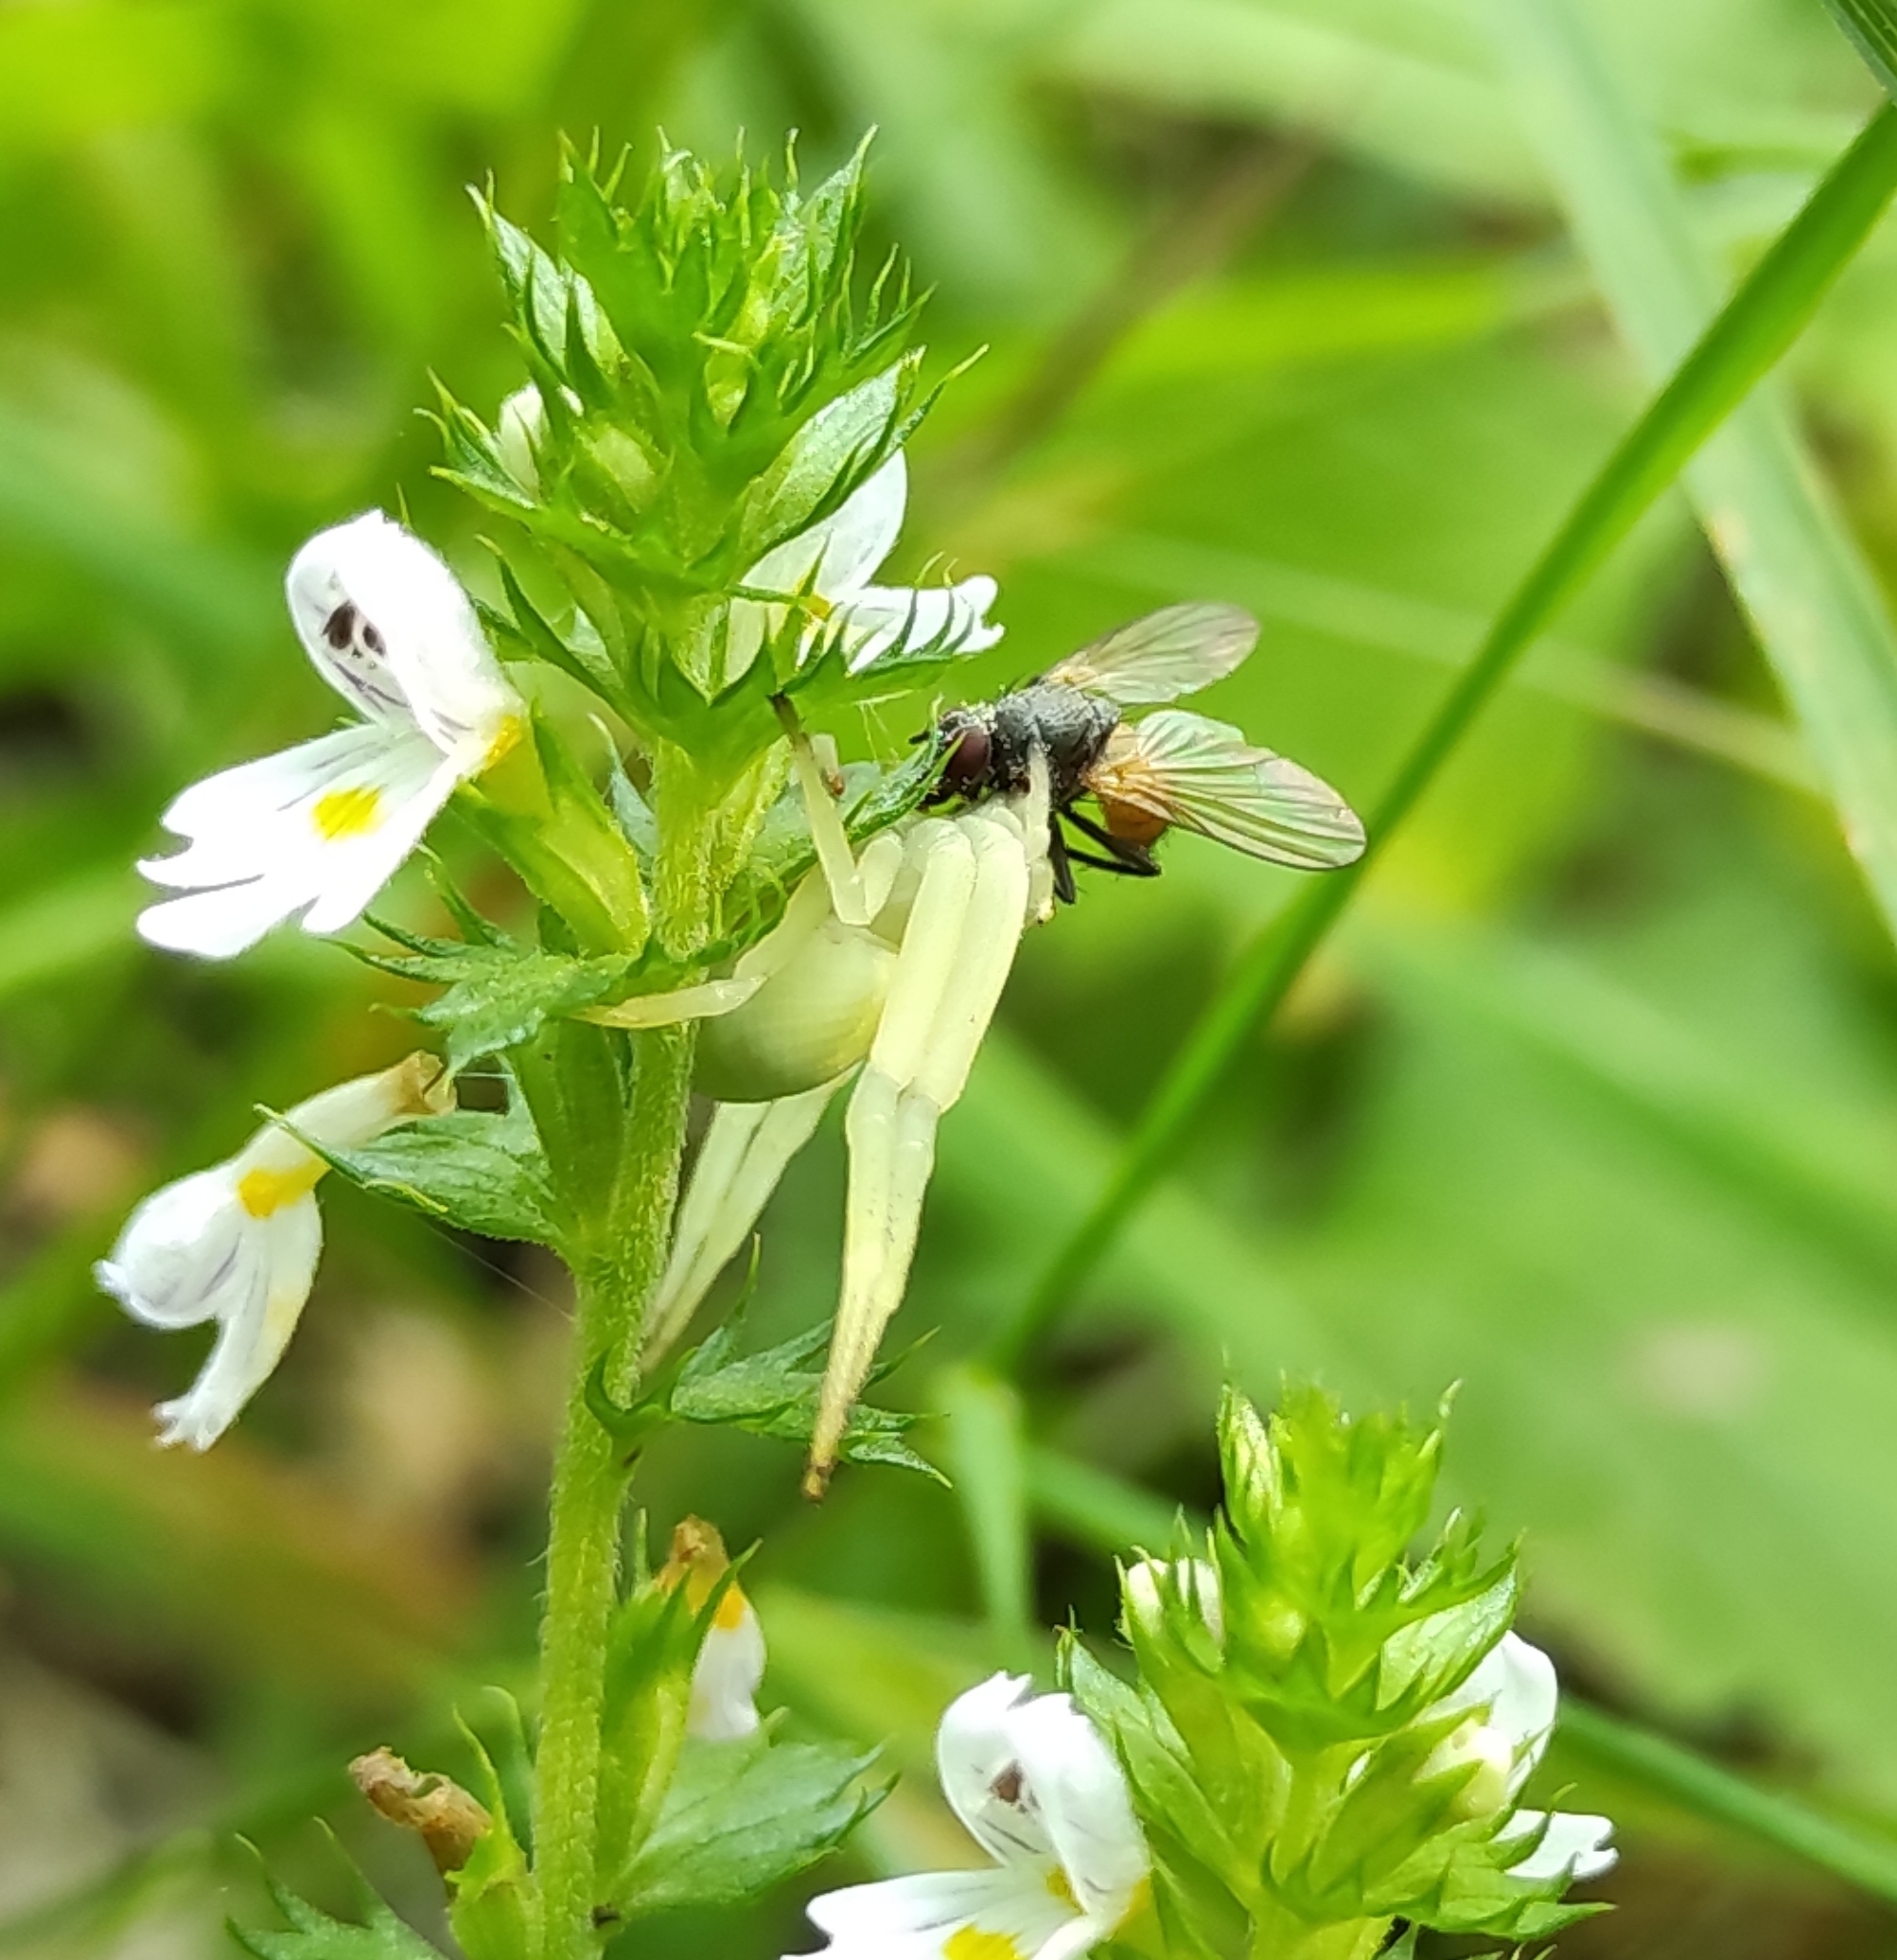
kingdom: Plantae
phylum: Tracheophyta
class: Magnoliopsida
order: Lamiales
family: Orobanchaceae
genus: Euphrasia
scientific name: Euphrasia pectinata
